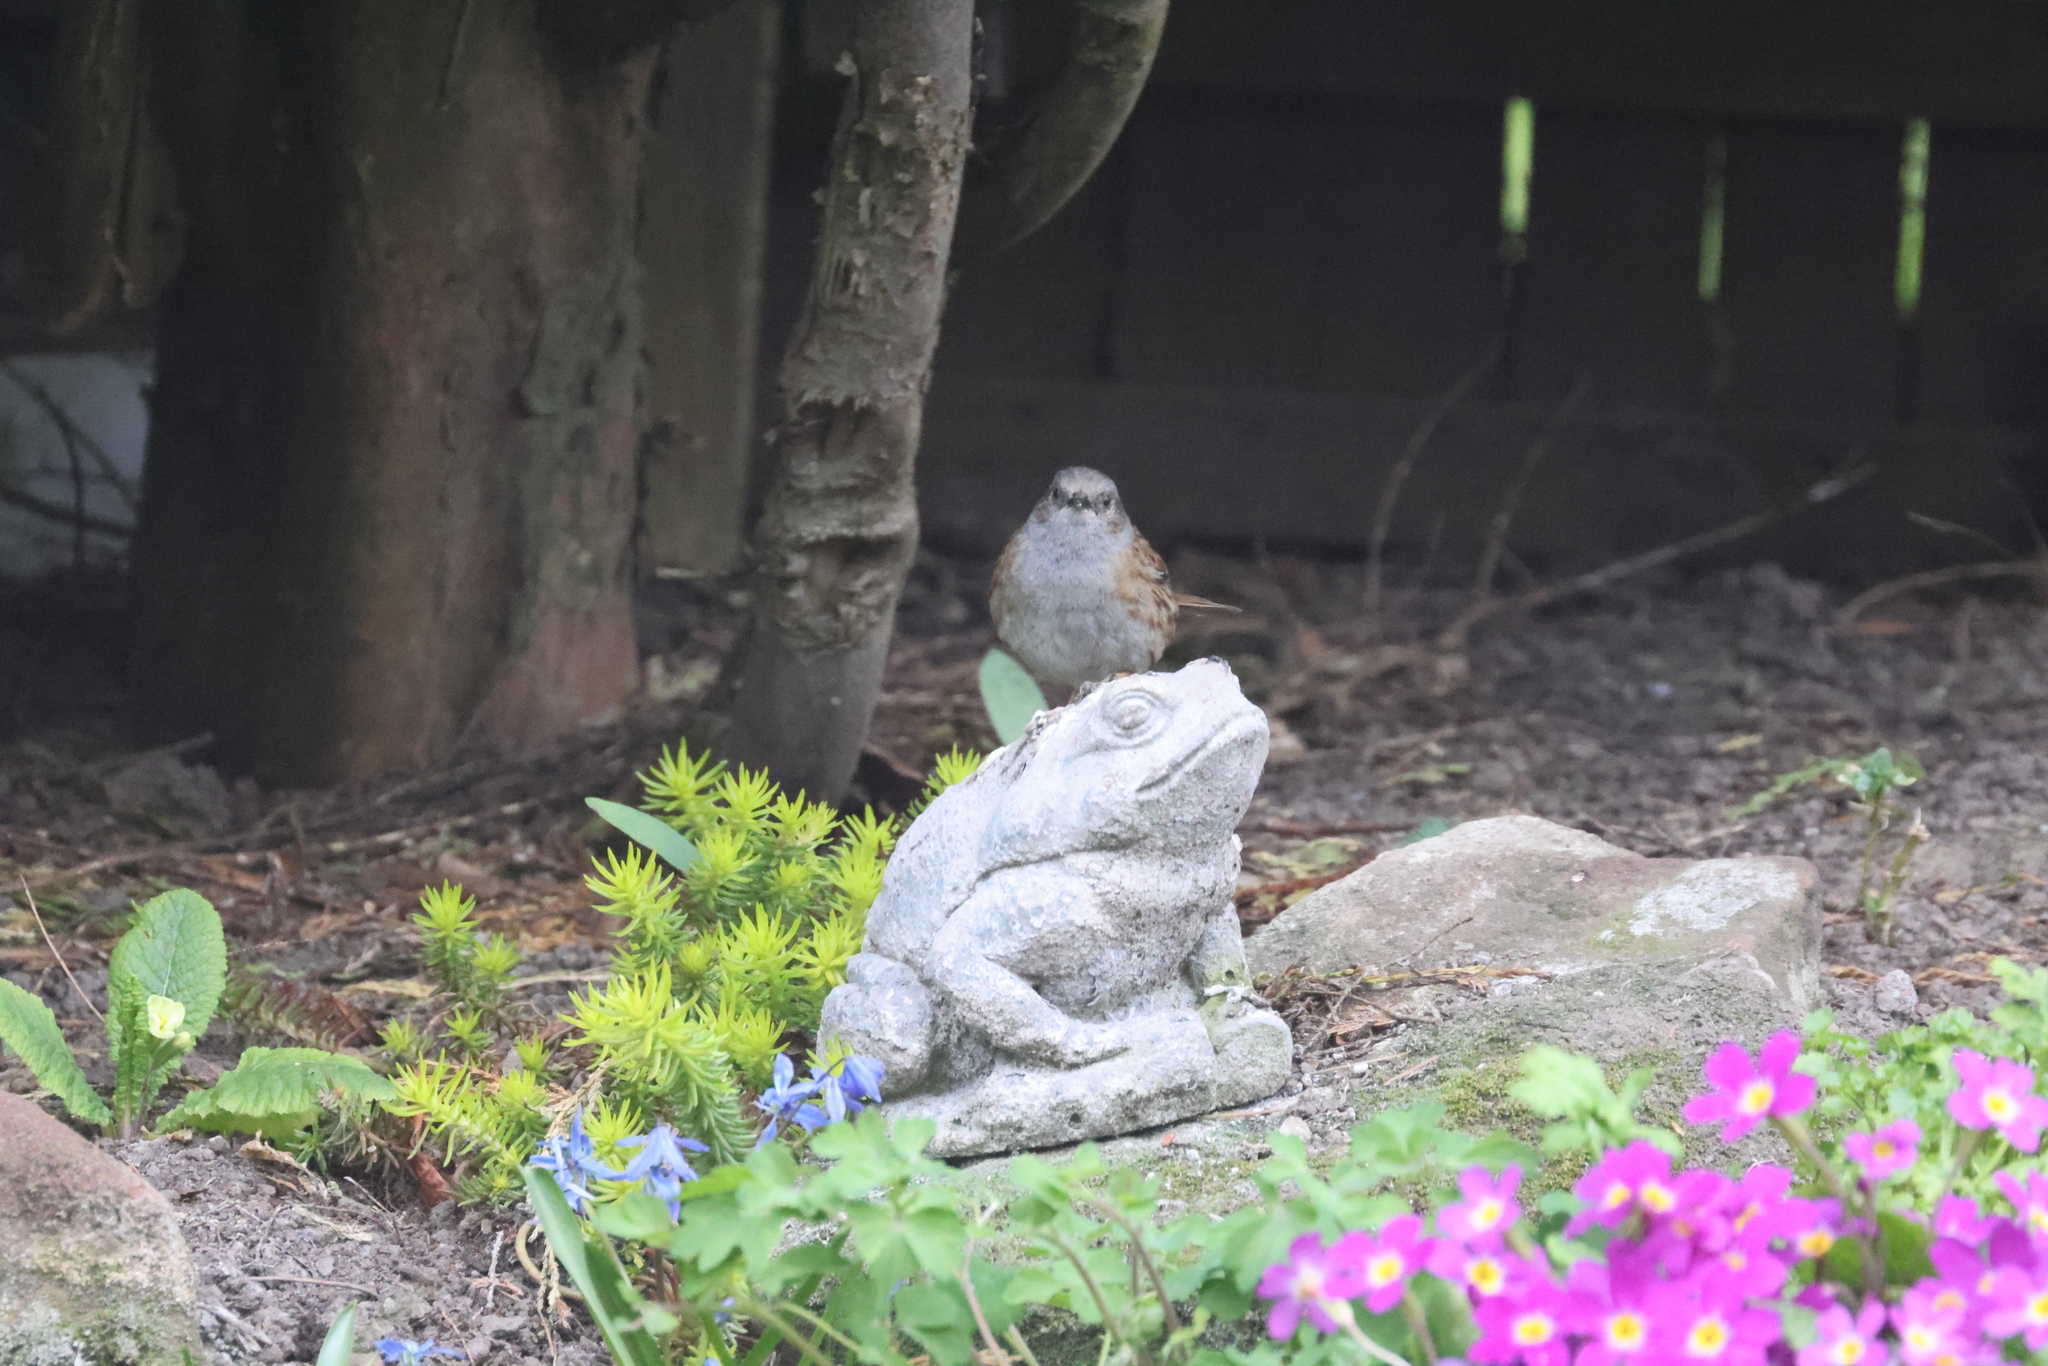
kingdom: Animalia
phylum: Chordata
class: Aves
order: Passeriformes
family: Prunellidae
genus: Prunella
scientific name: Prunella modularis
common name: Dunnock
